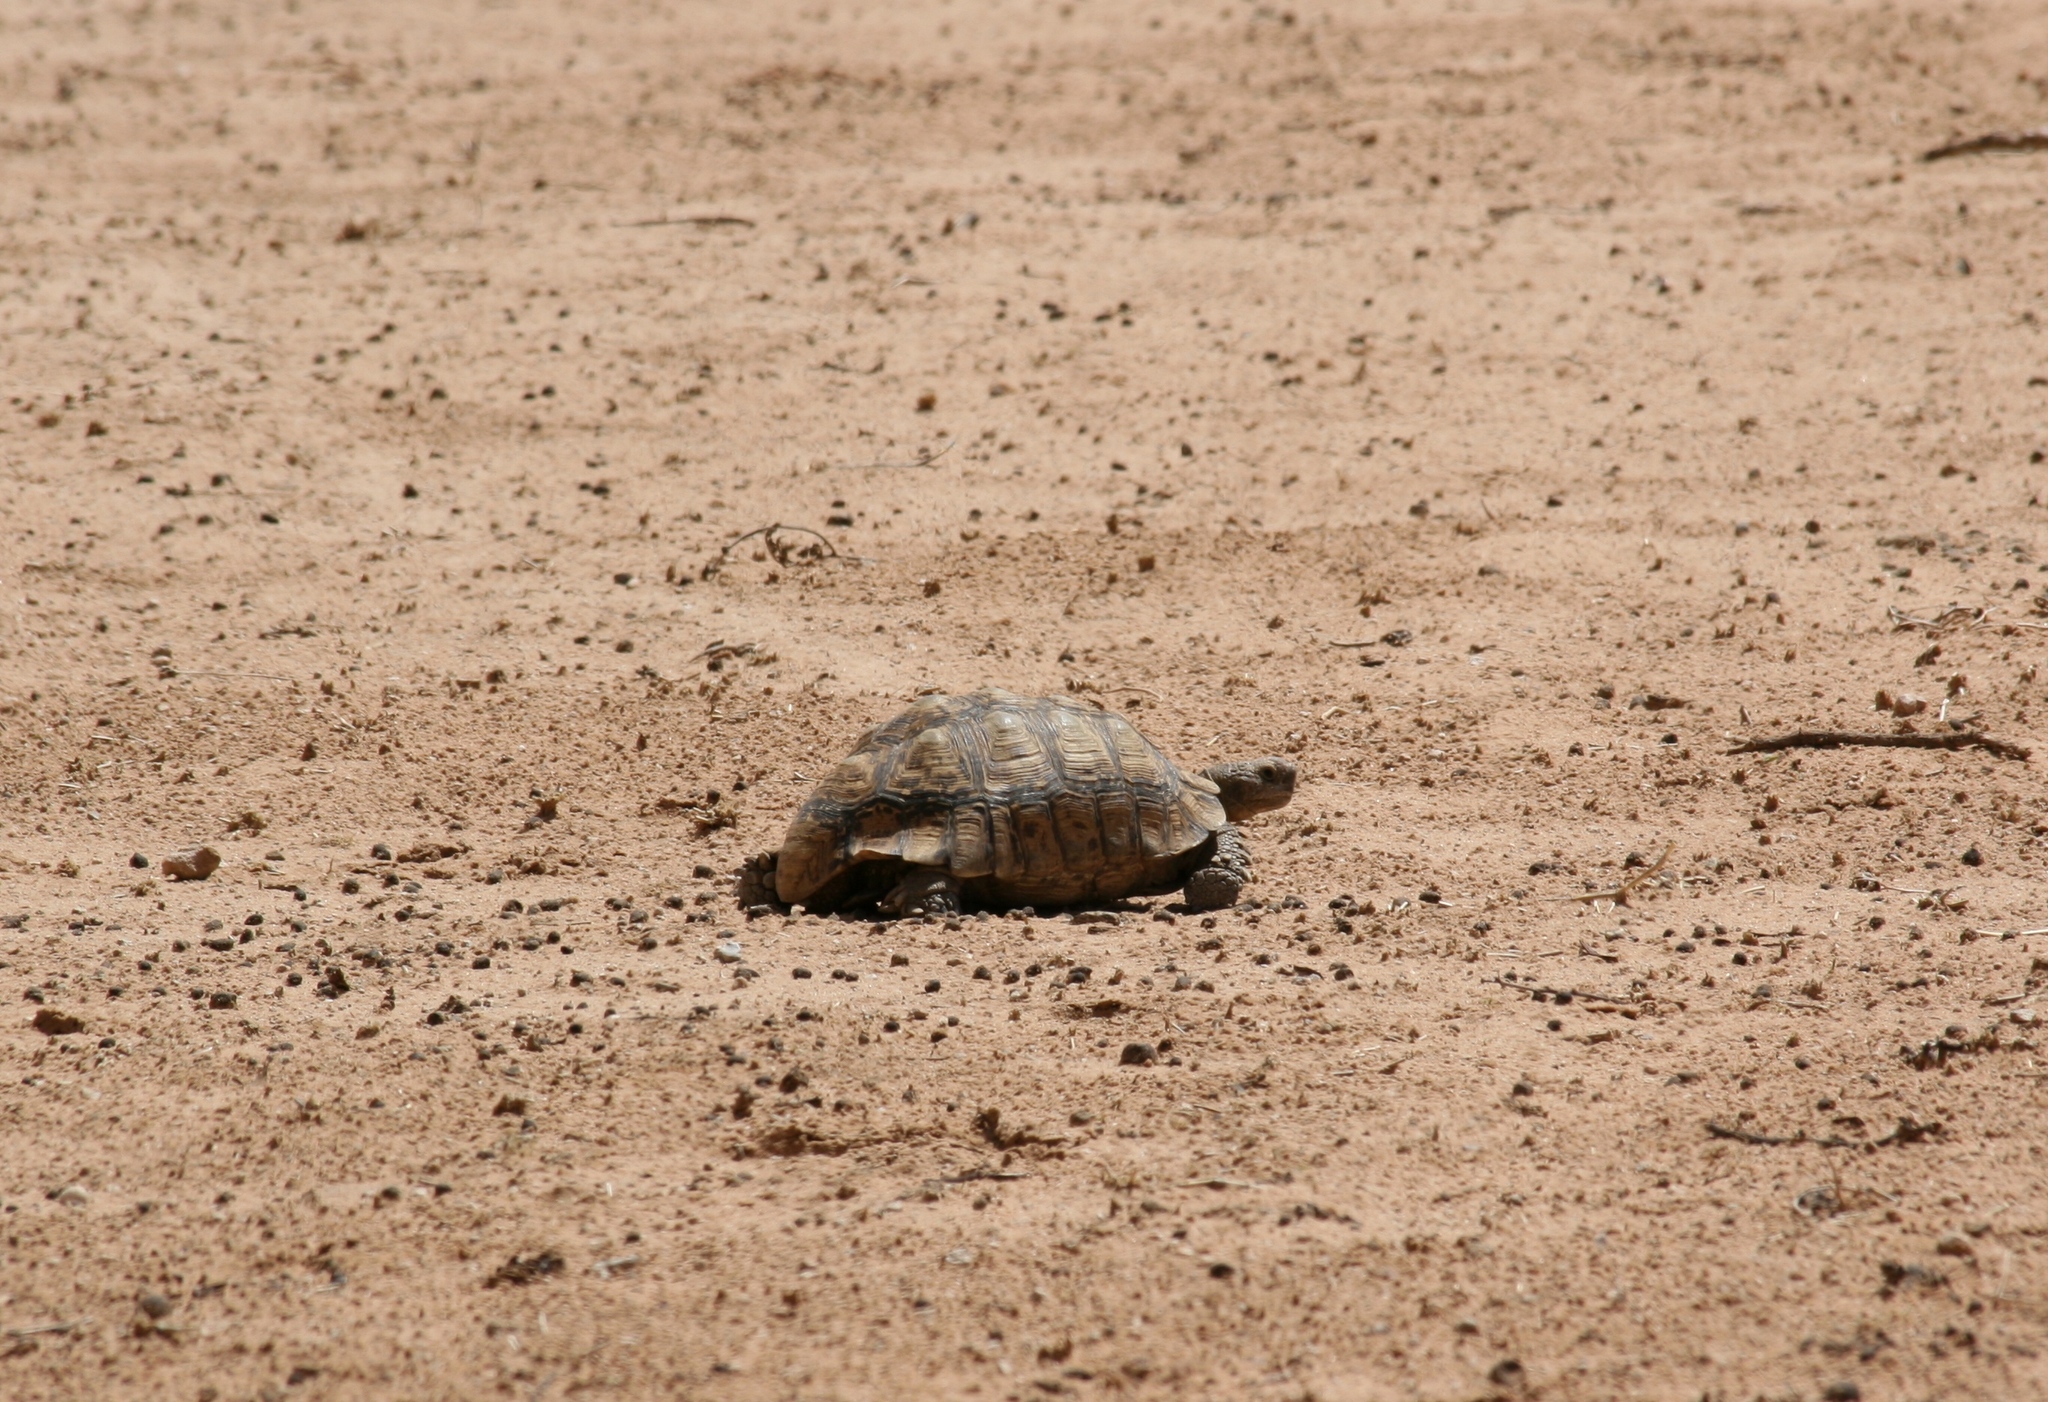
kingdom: Animalia
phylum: Chordata
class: Testudines
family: Testudinidae
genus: Stigmochelys
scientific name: Stigmochelys pardalis
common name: Leopard tortoise
